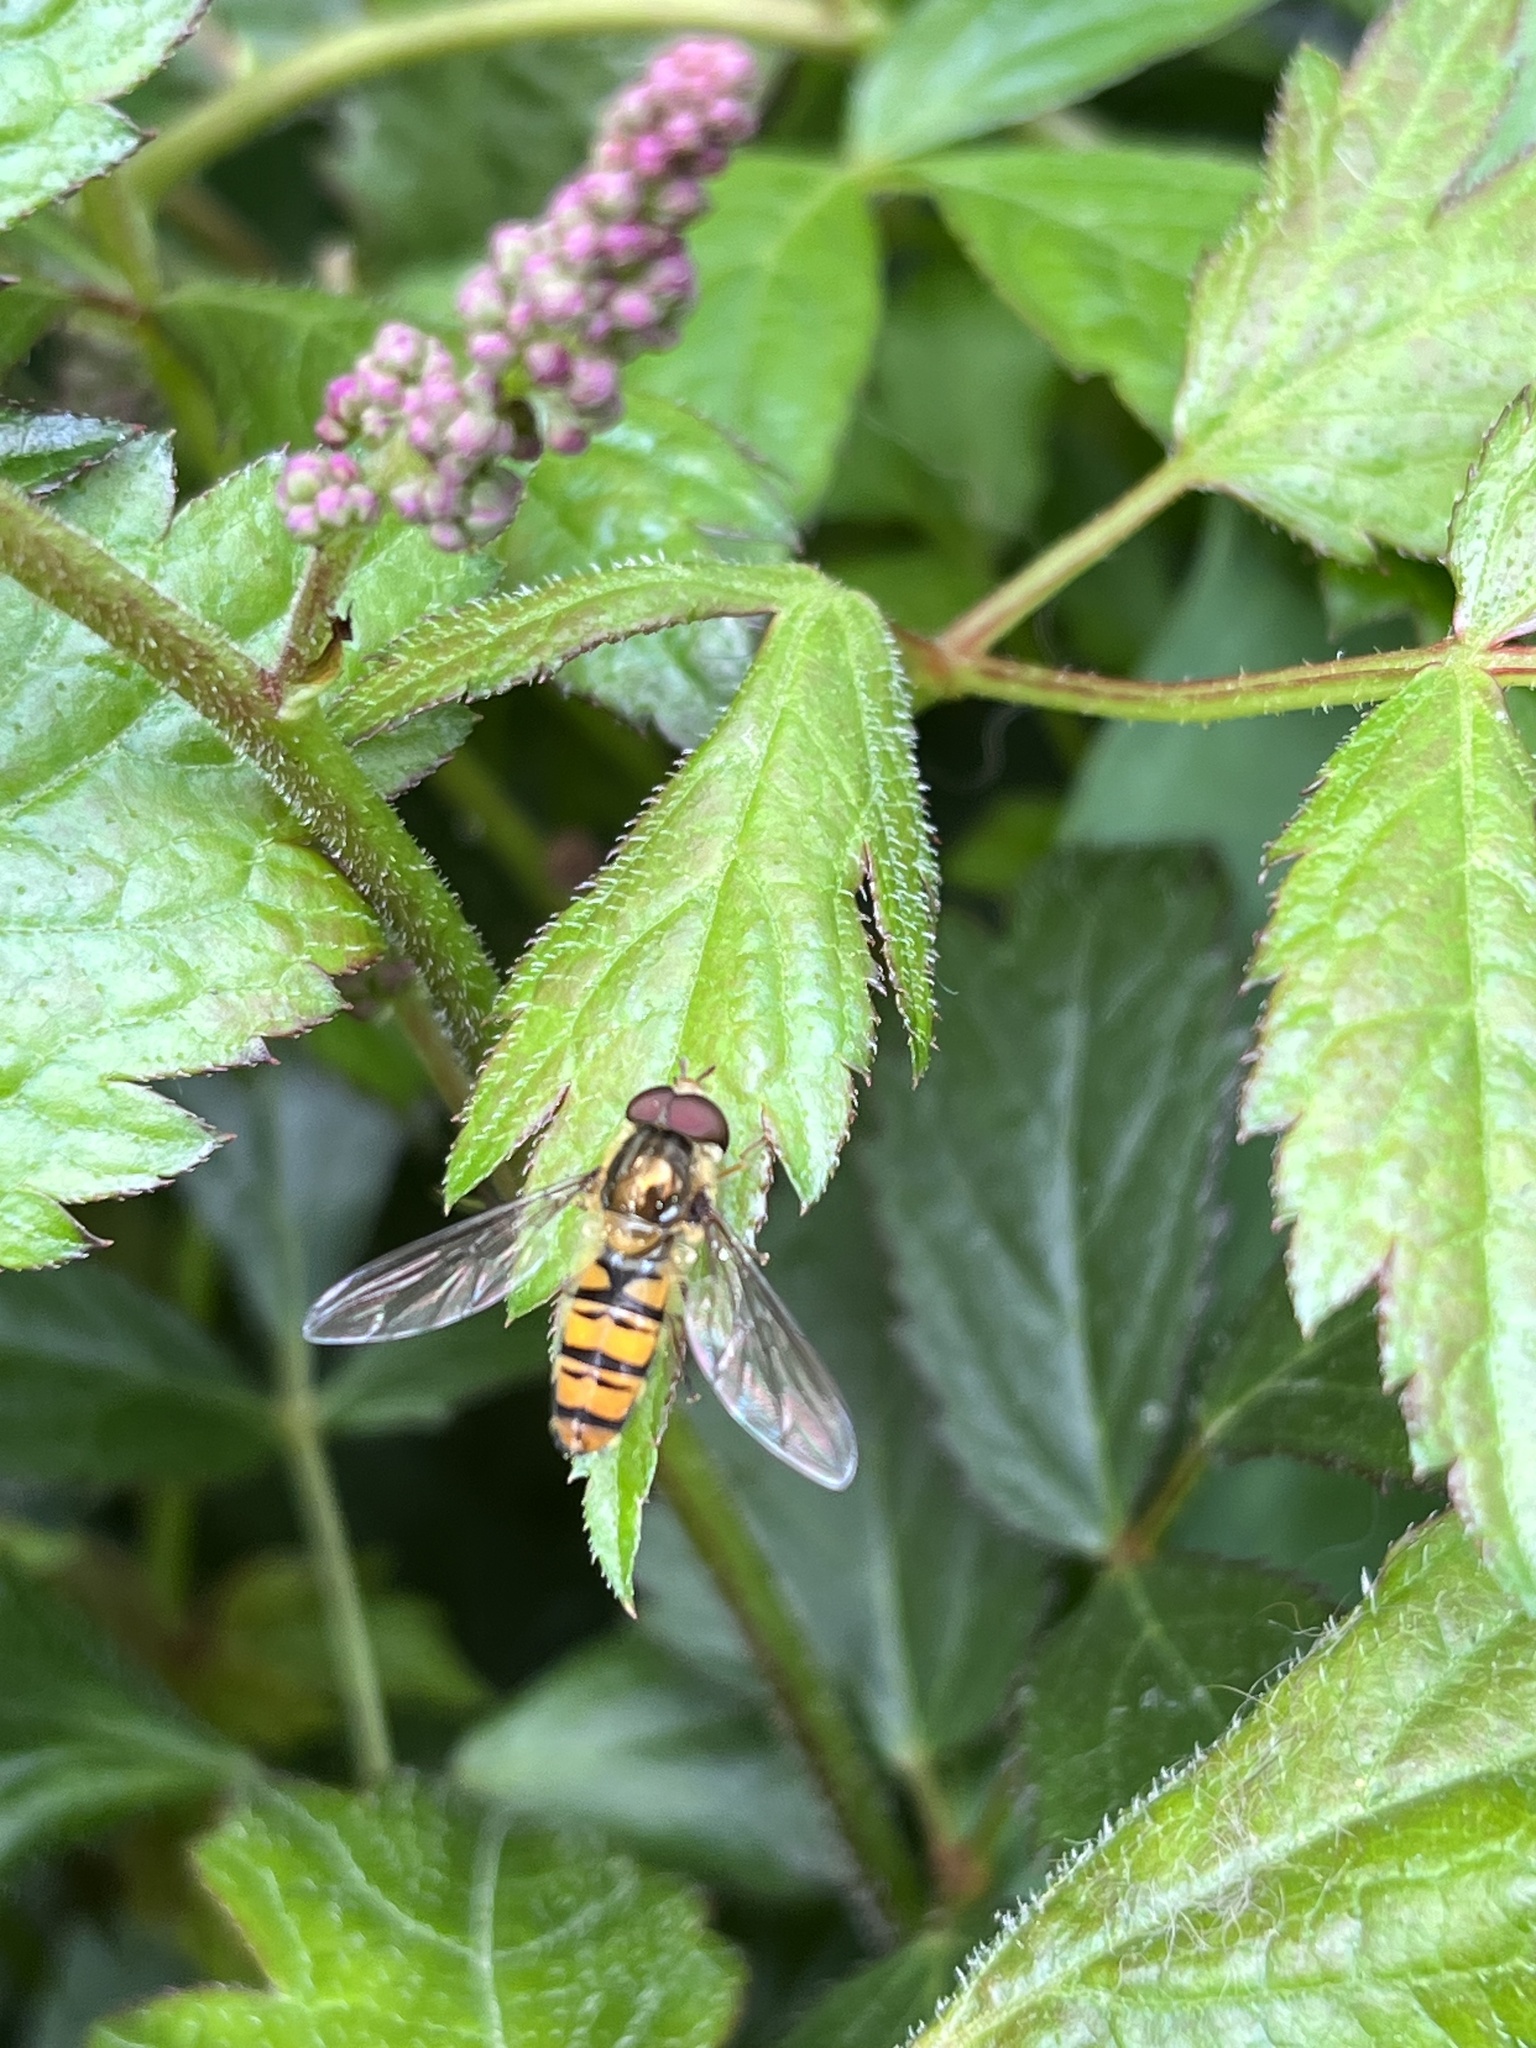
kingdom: Animalia
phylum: Arthropoda
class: Insecta
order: Diptera
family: Syrphidae
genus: Episyrphus
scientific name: Episyrphus balteatus
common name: Marmalade hoverfly
